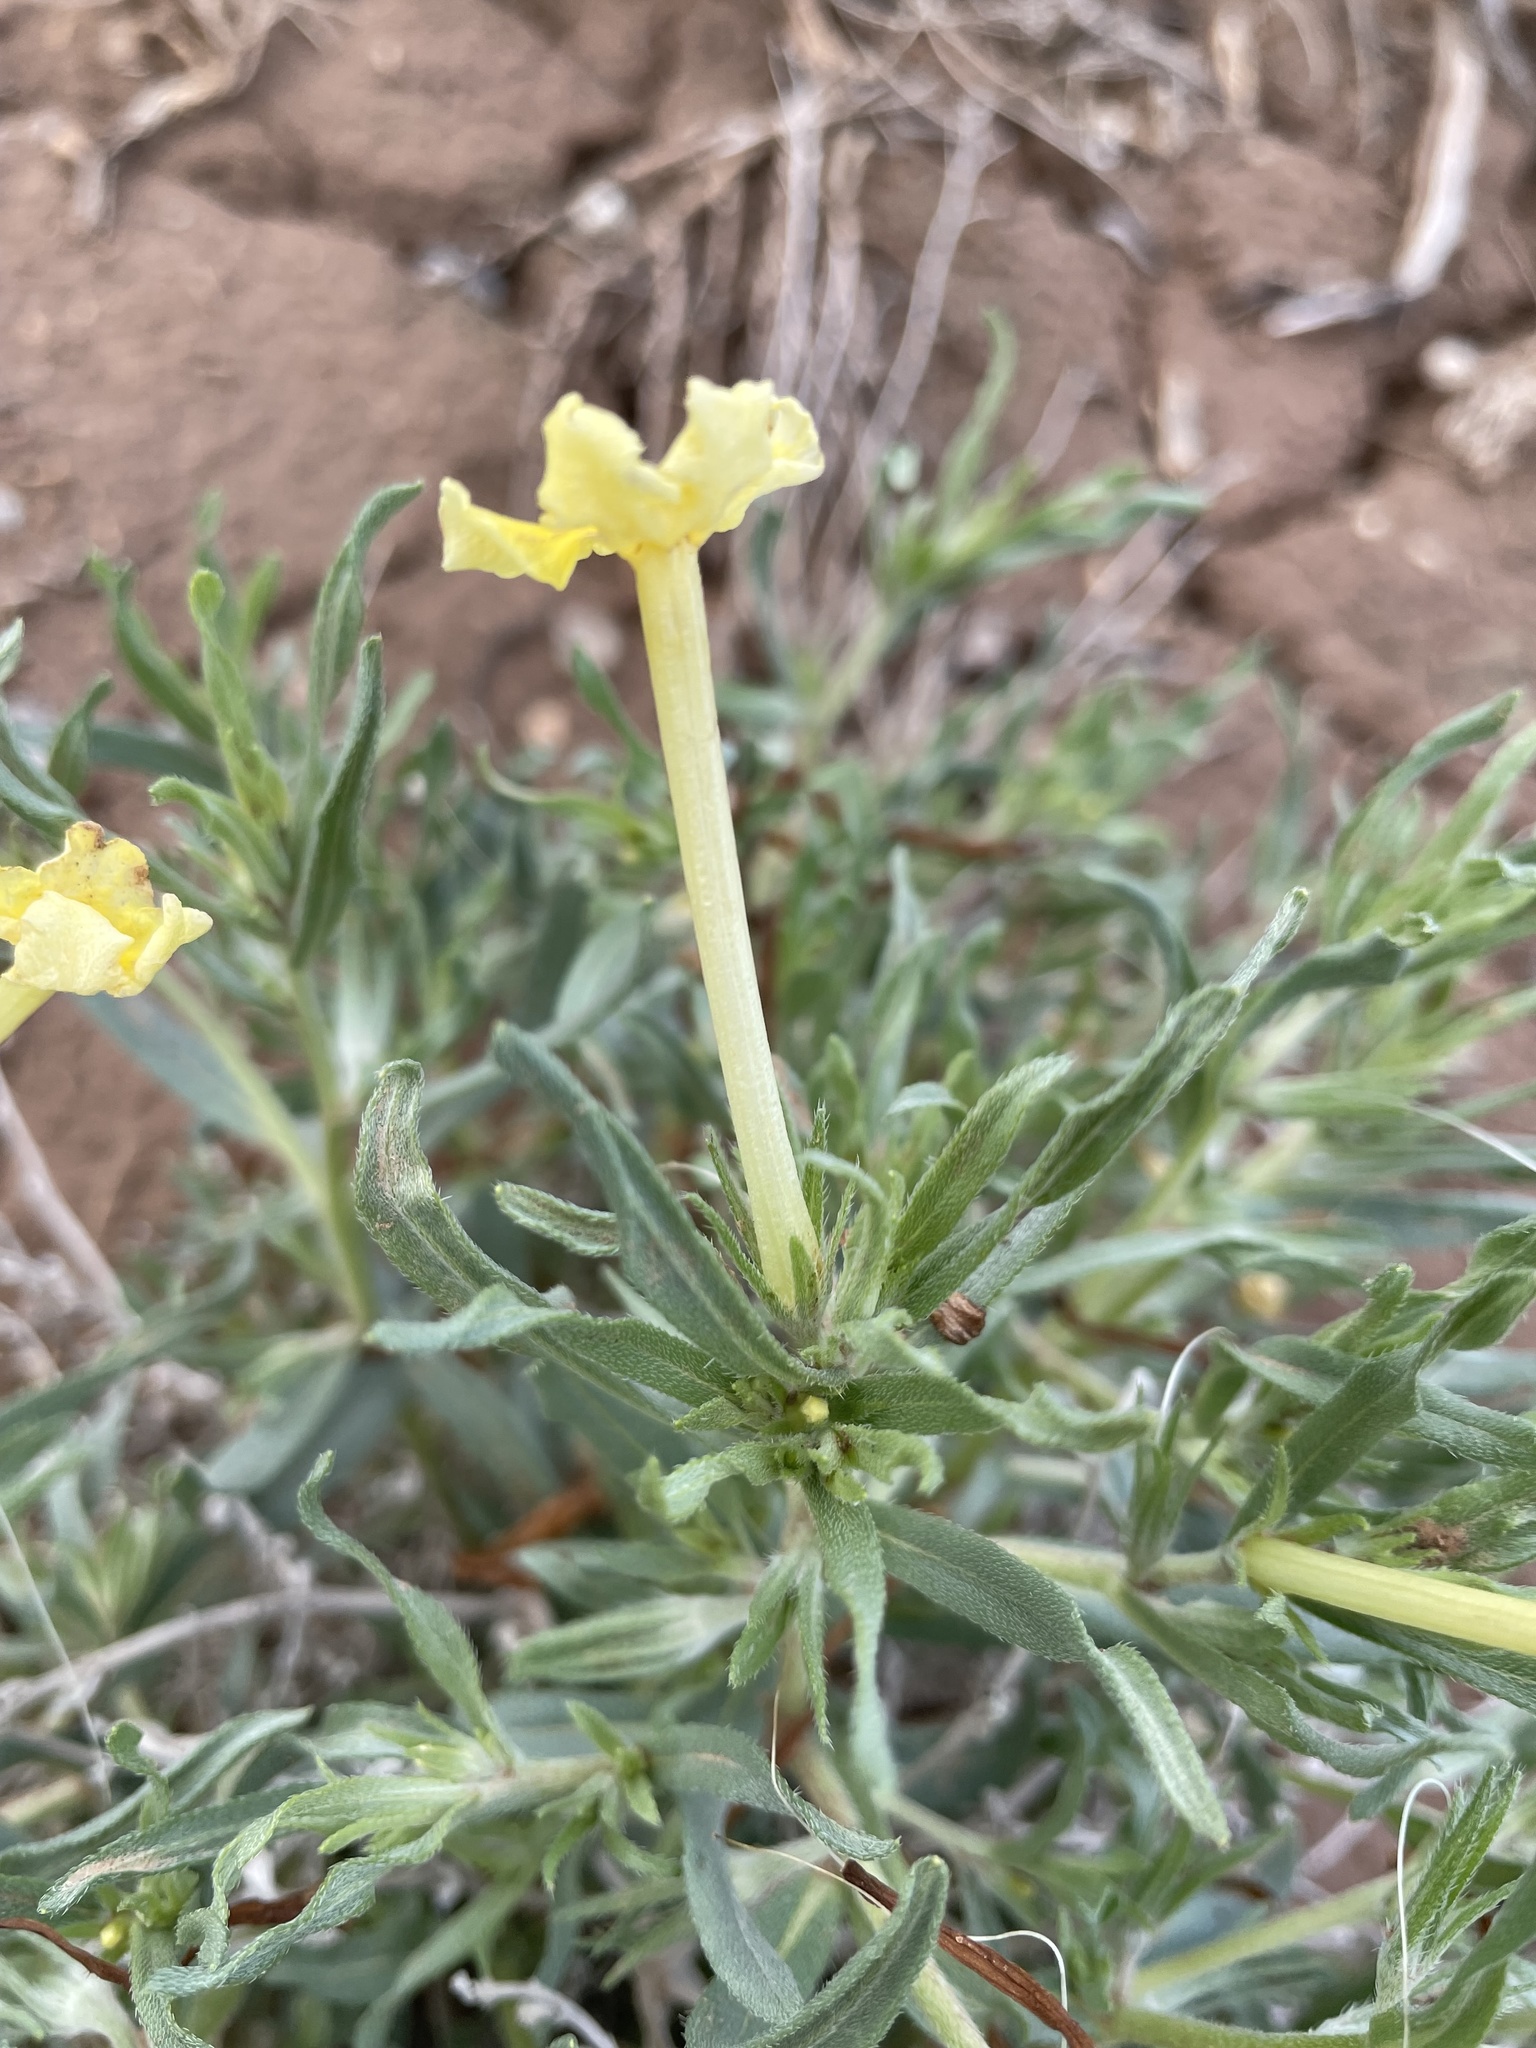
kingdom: Plantae
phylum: Tracheophyta
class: Magnoliopsida
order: Boraginales
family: Boraginaceae
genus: Lithospermum
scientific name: Lithospermum incisum
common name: Fringed gromwell
